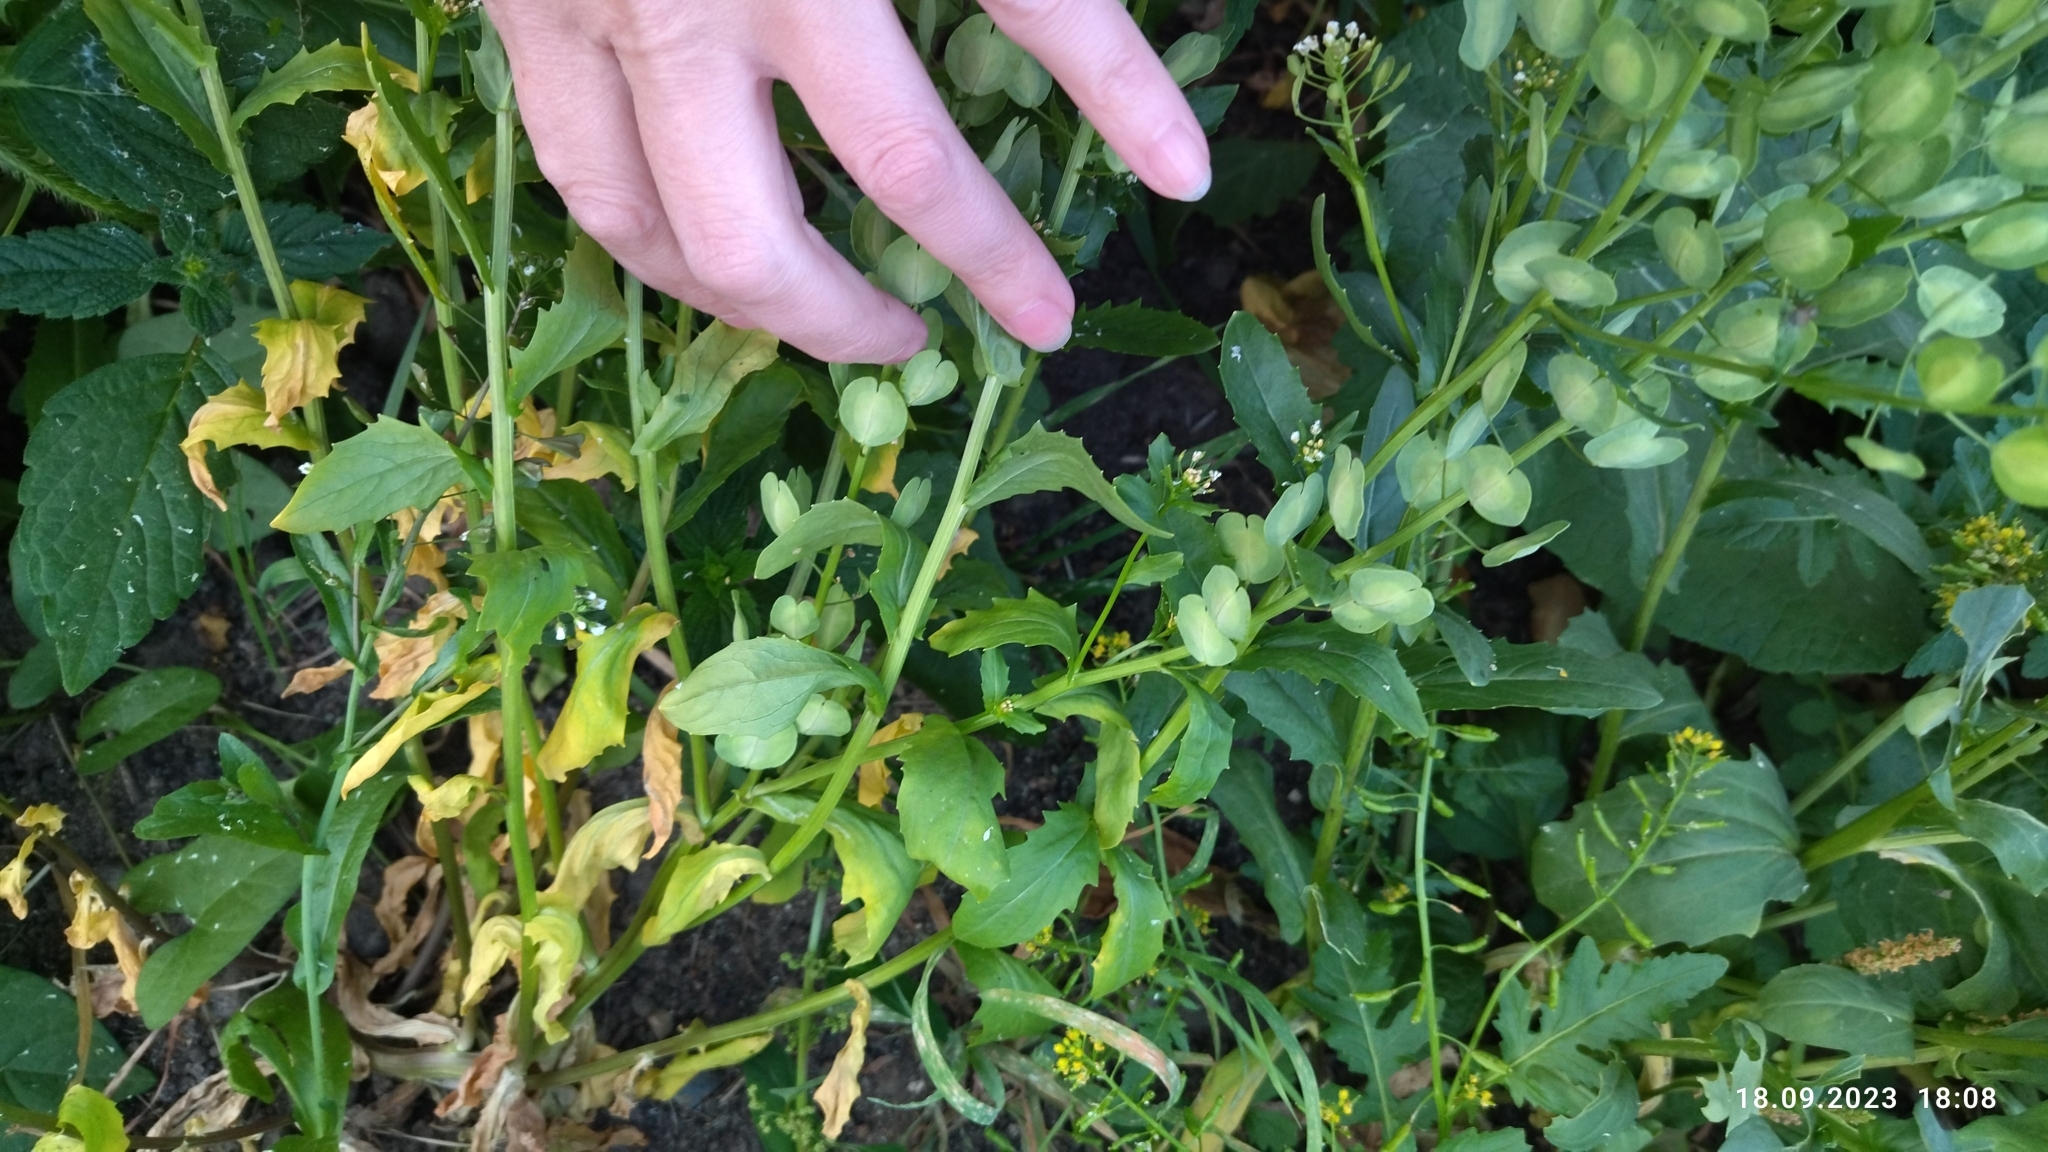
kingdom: Plantae
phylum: Tracheophyta
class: Magnoliopsida
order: Brassicales
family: Brassicaceae
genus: Thlaspi
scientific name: Thlaspi arvense
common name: Field pennycress
